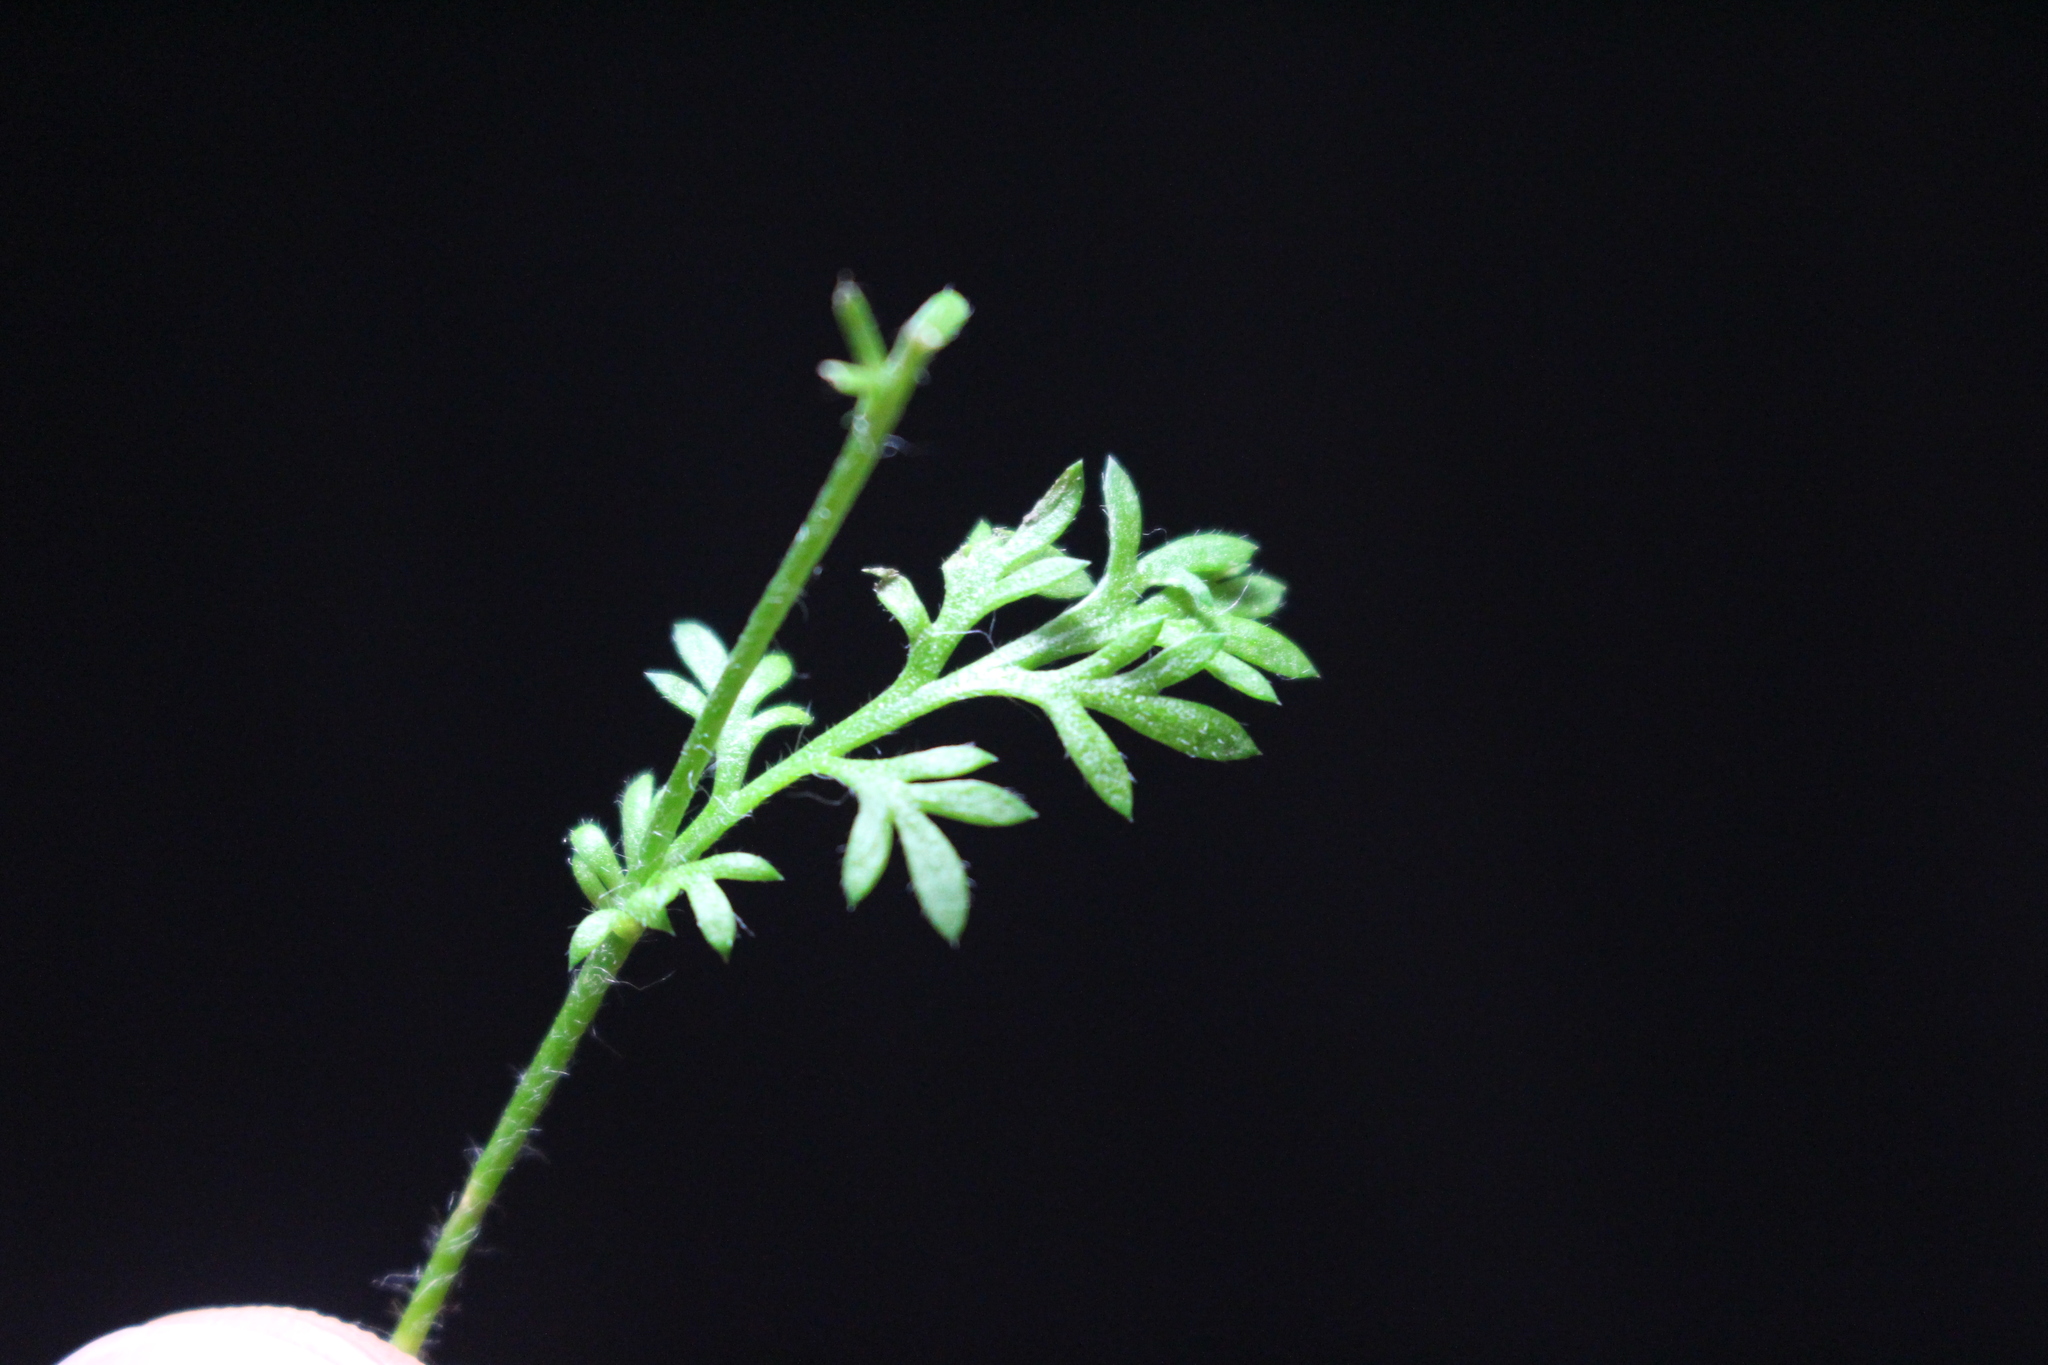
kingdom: Plantae
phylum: Tracheophyta
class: Magnoliopsida
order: Asterales
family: Asteraceae
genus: Cotula
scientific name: Cotula australis
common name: Australian waterbuttons
